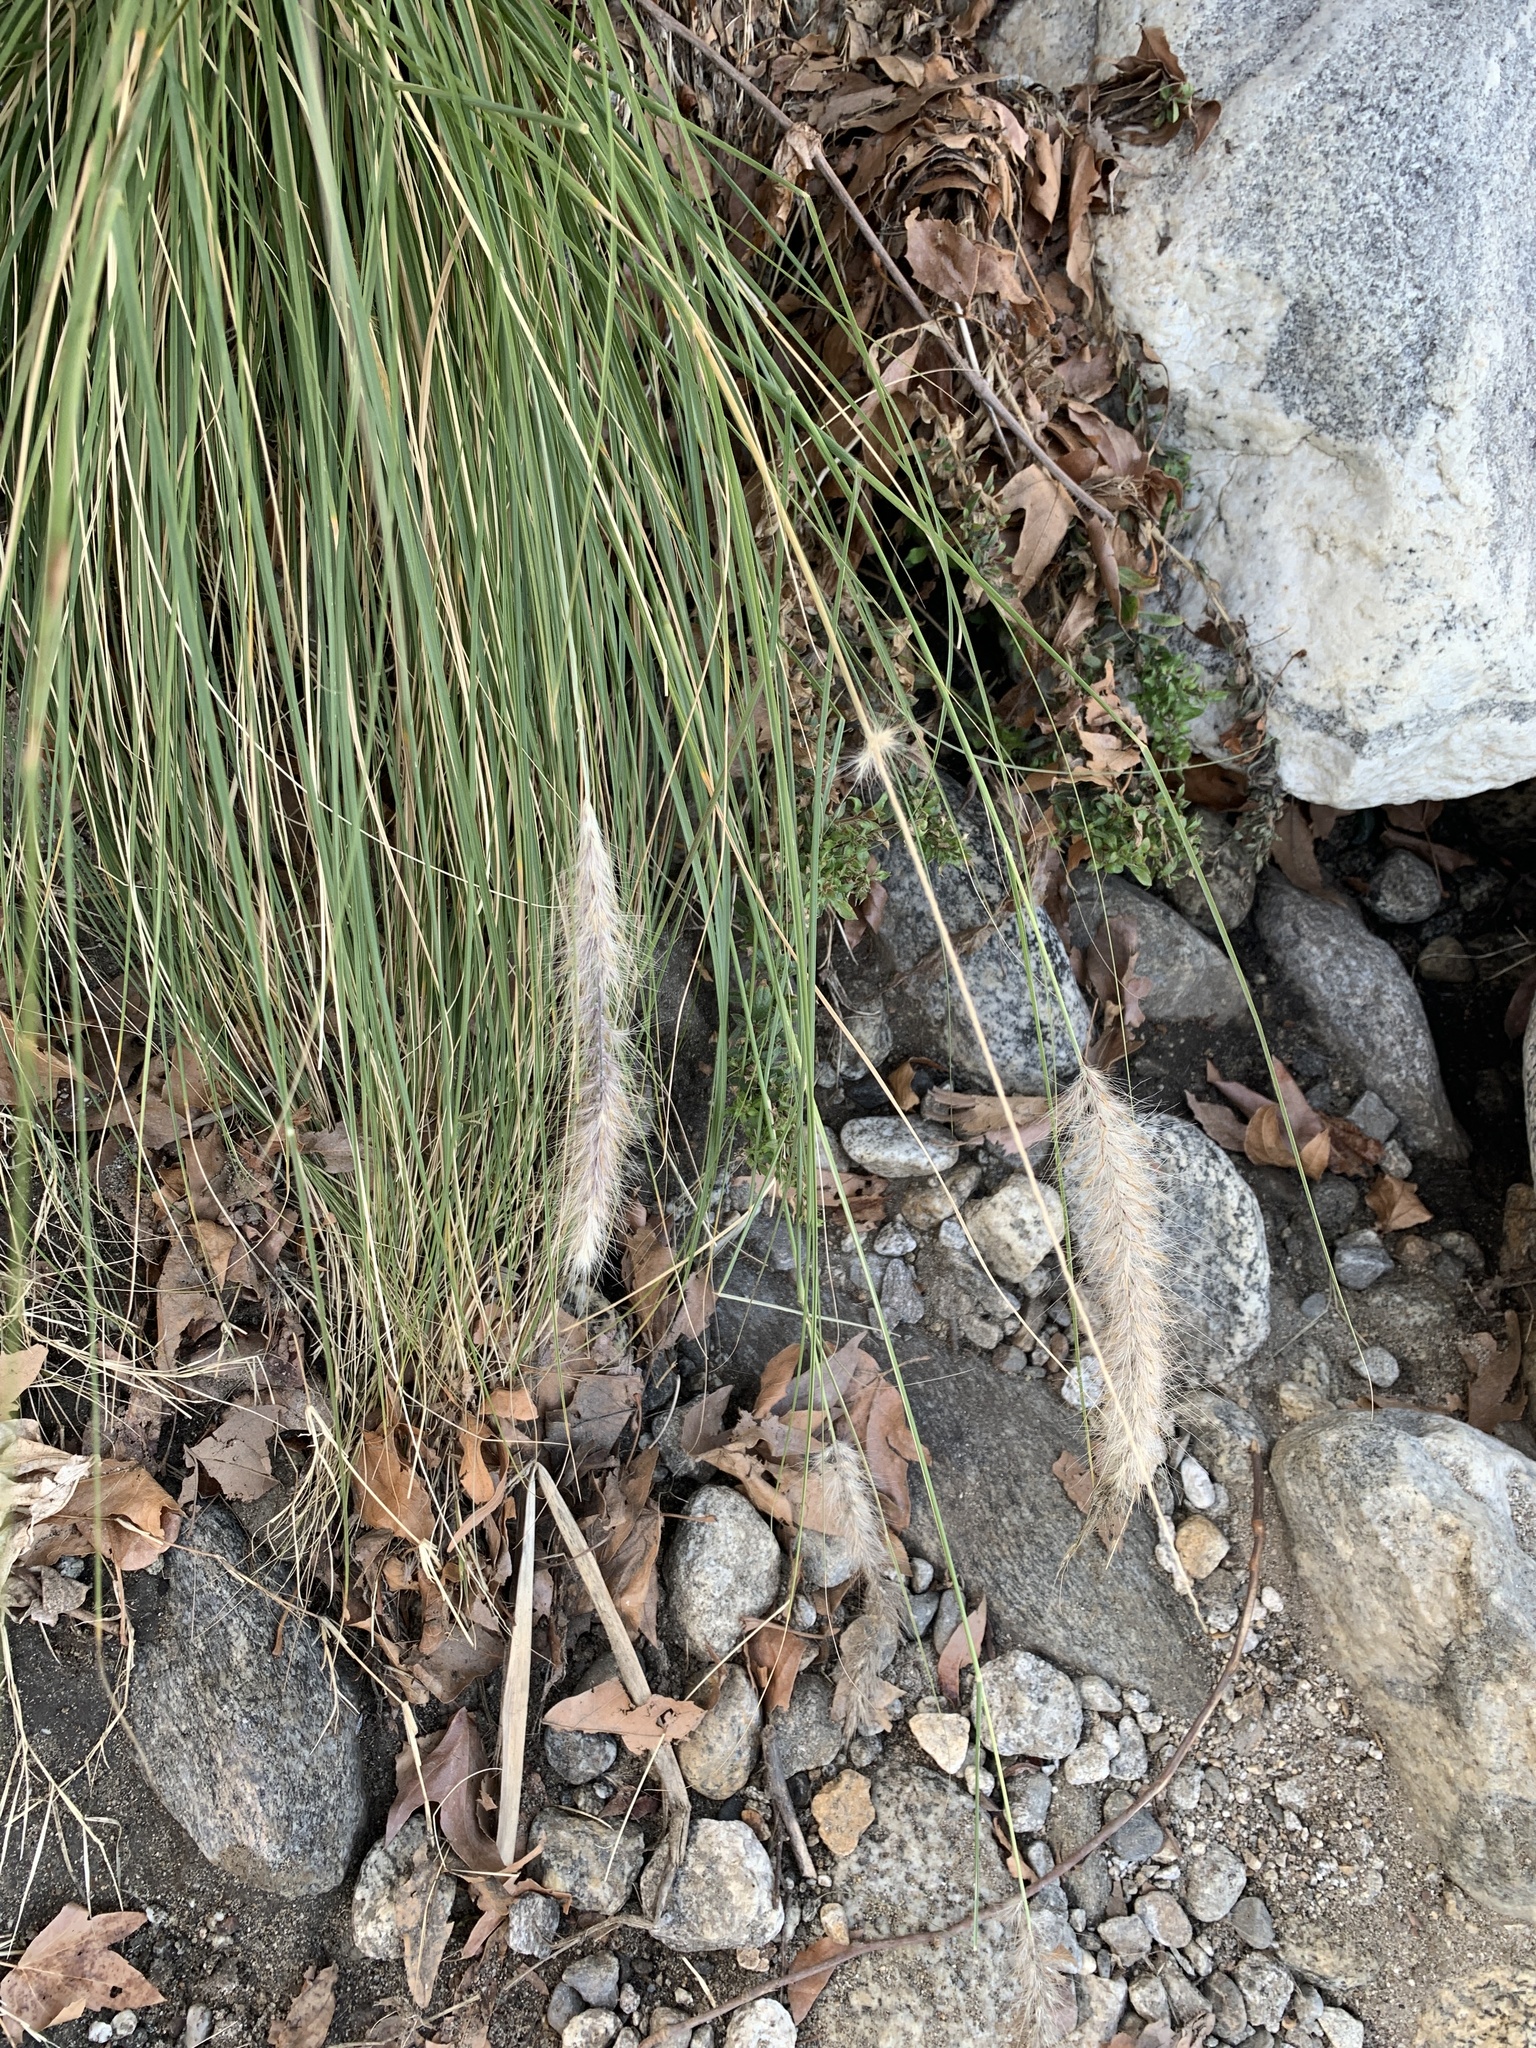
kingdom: Plantae
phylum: Tracheophyta
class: Liliopsida
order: Poales
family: Poaceae
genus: Cenchrus
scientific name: Cenchrus setaceus
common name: Crimson fountaingrass
